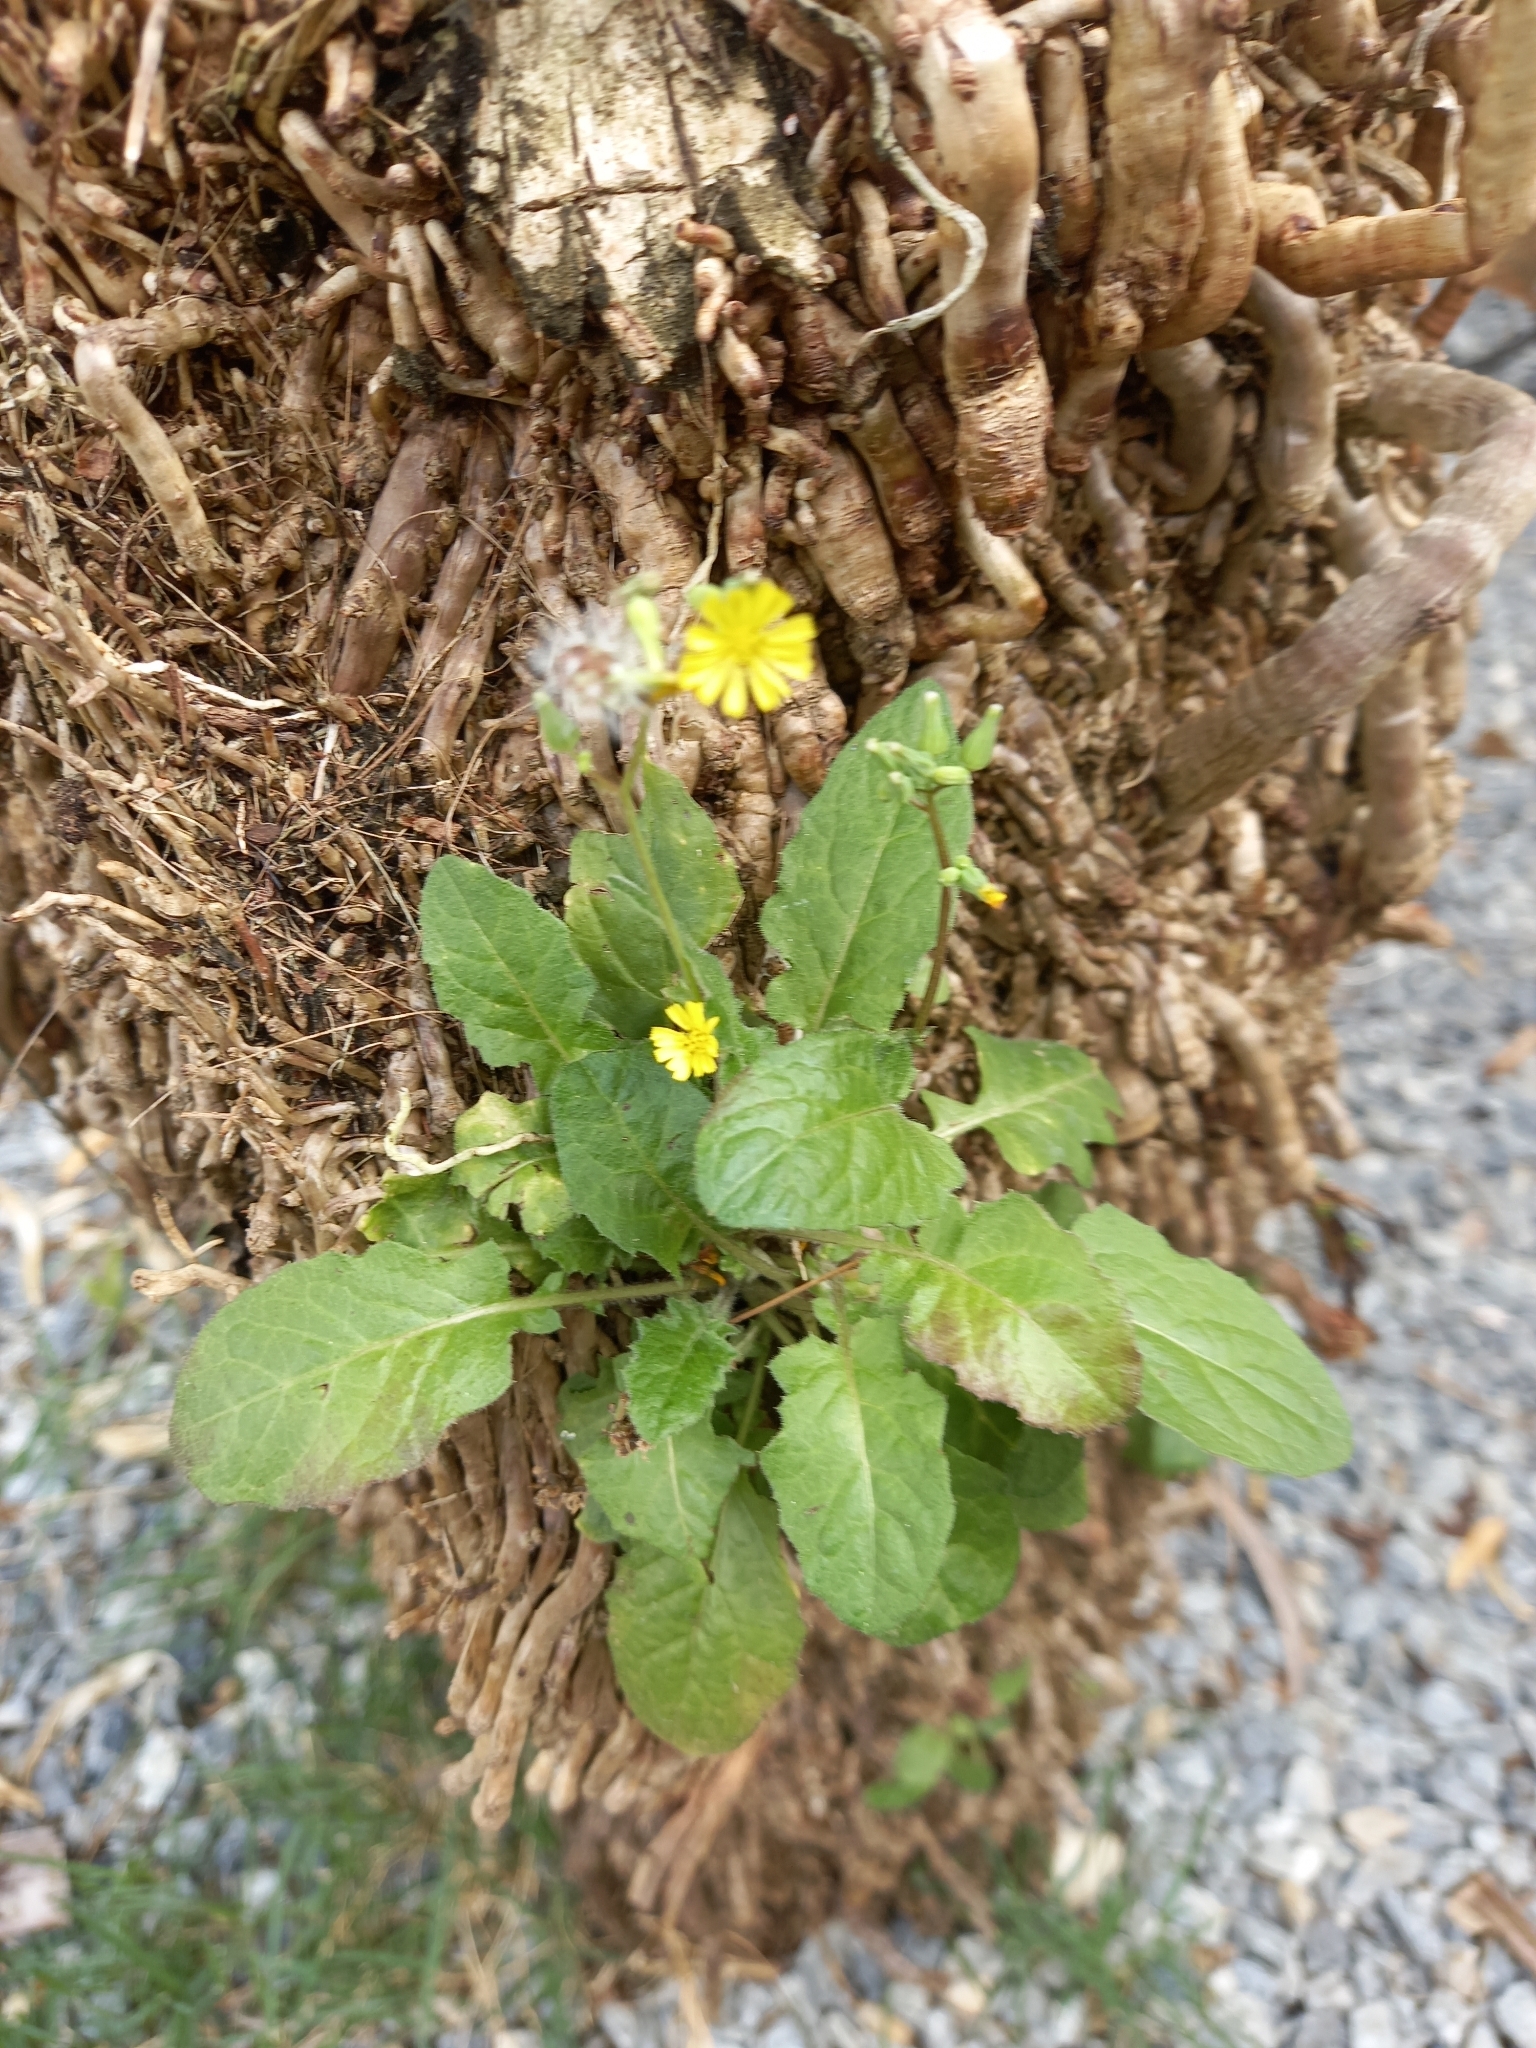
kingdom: Plantae
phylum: Tracheophyta
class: Magnoliopsida
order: Asterales
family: Asteraceae
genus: Youngia
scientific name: Youngia japonica
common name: Oriental false hawksbeard
